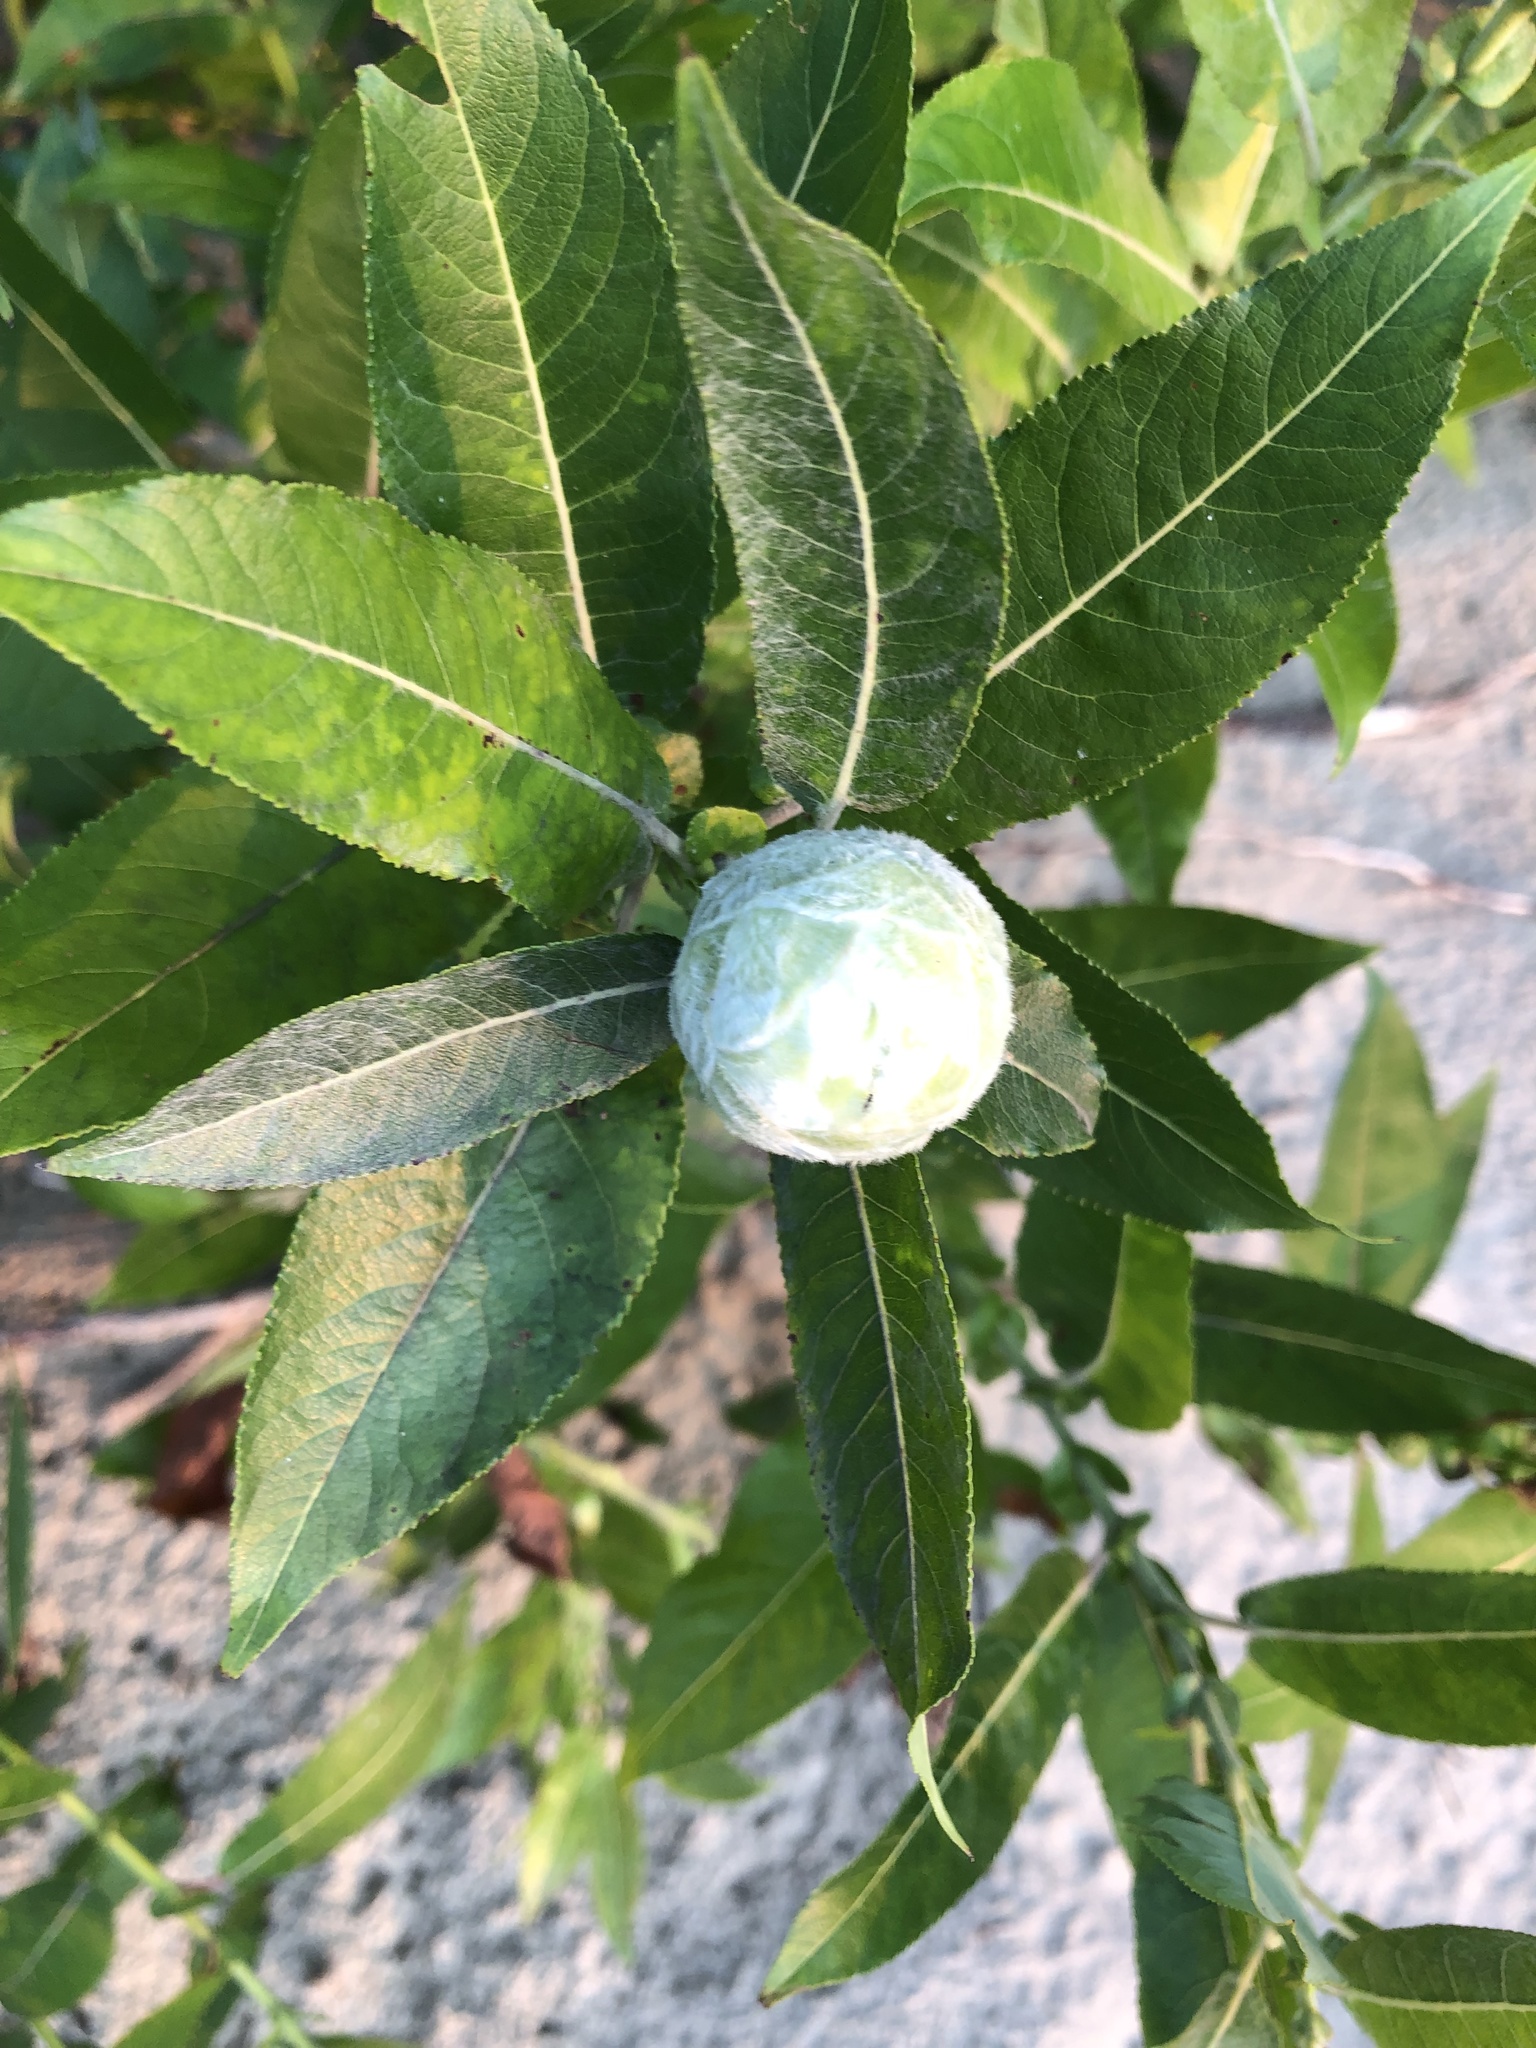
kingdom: Animalia
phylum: Arthropoda
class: Insecta
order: Diptera
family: Cecidomyiidae
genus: Rabdophaga
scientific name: Rabdophaga strobiloides
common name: Willow pinecone gall midge
